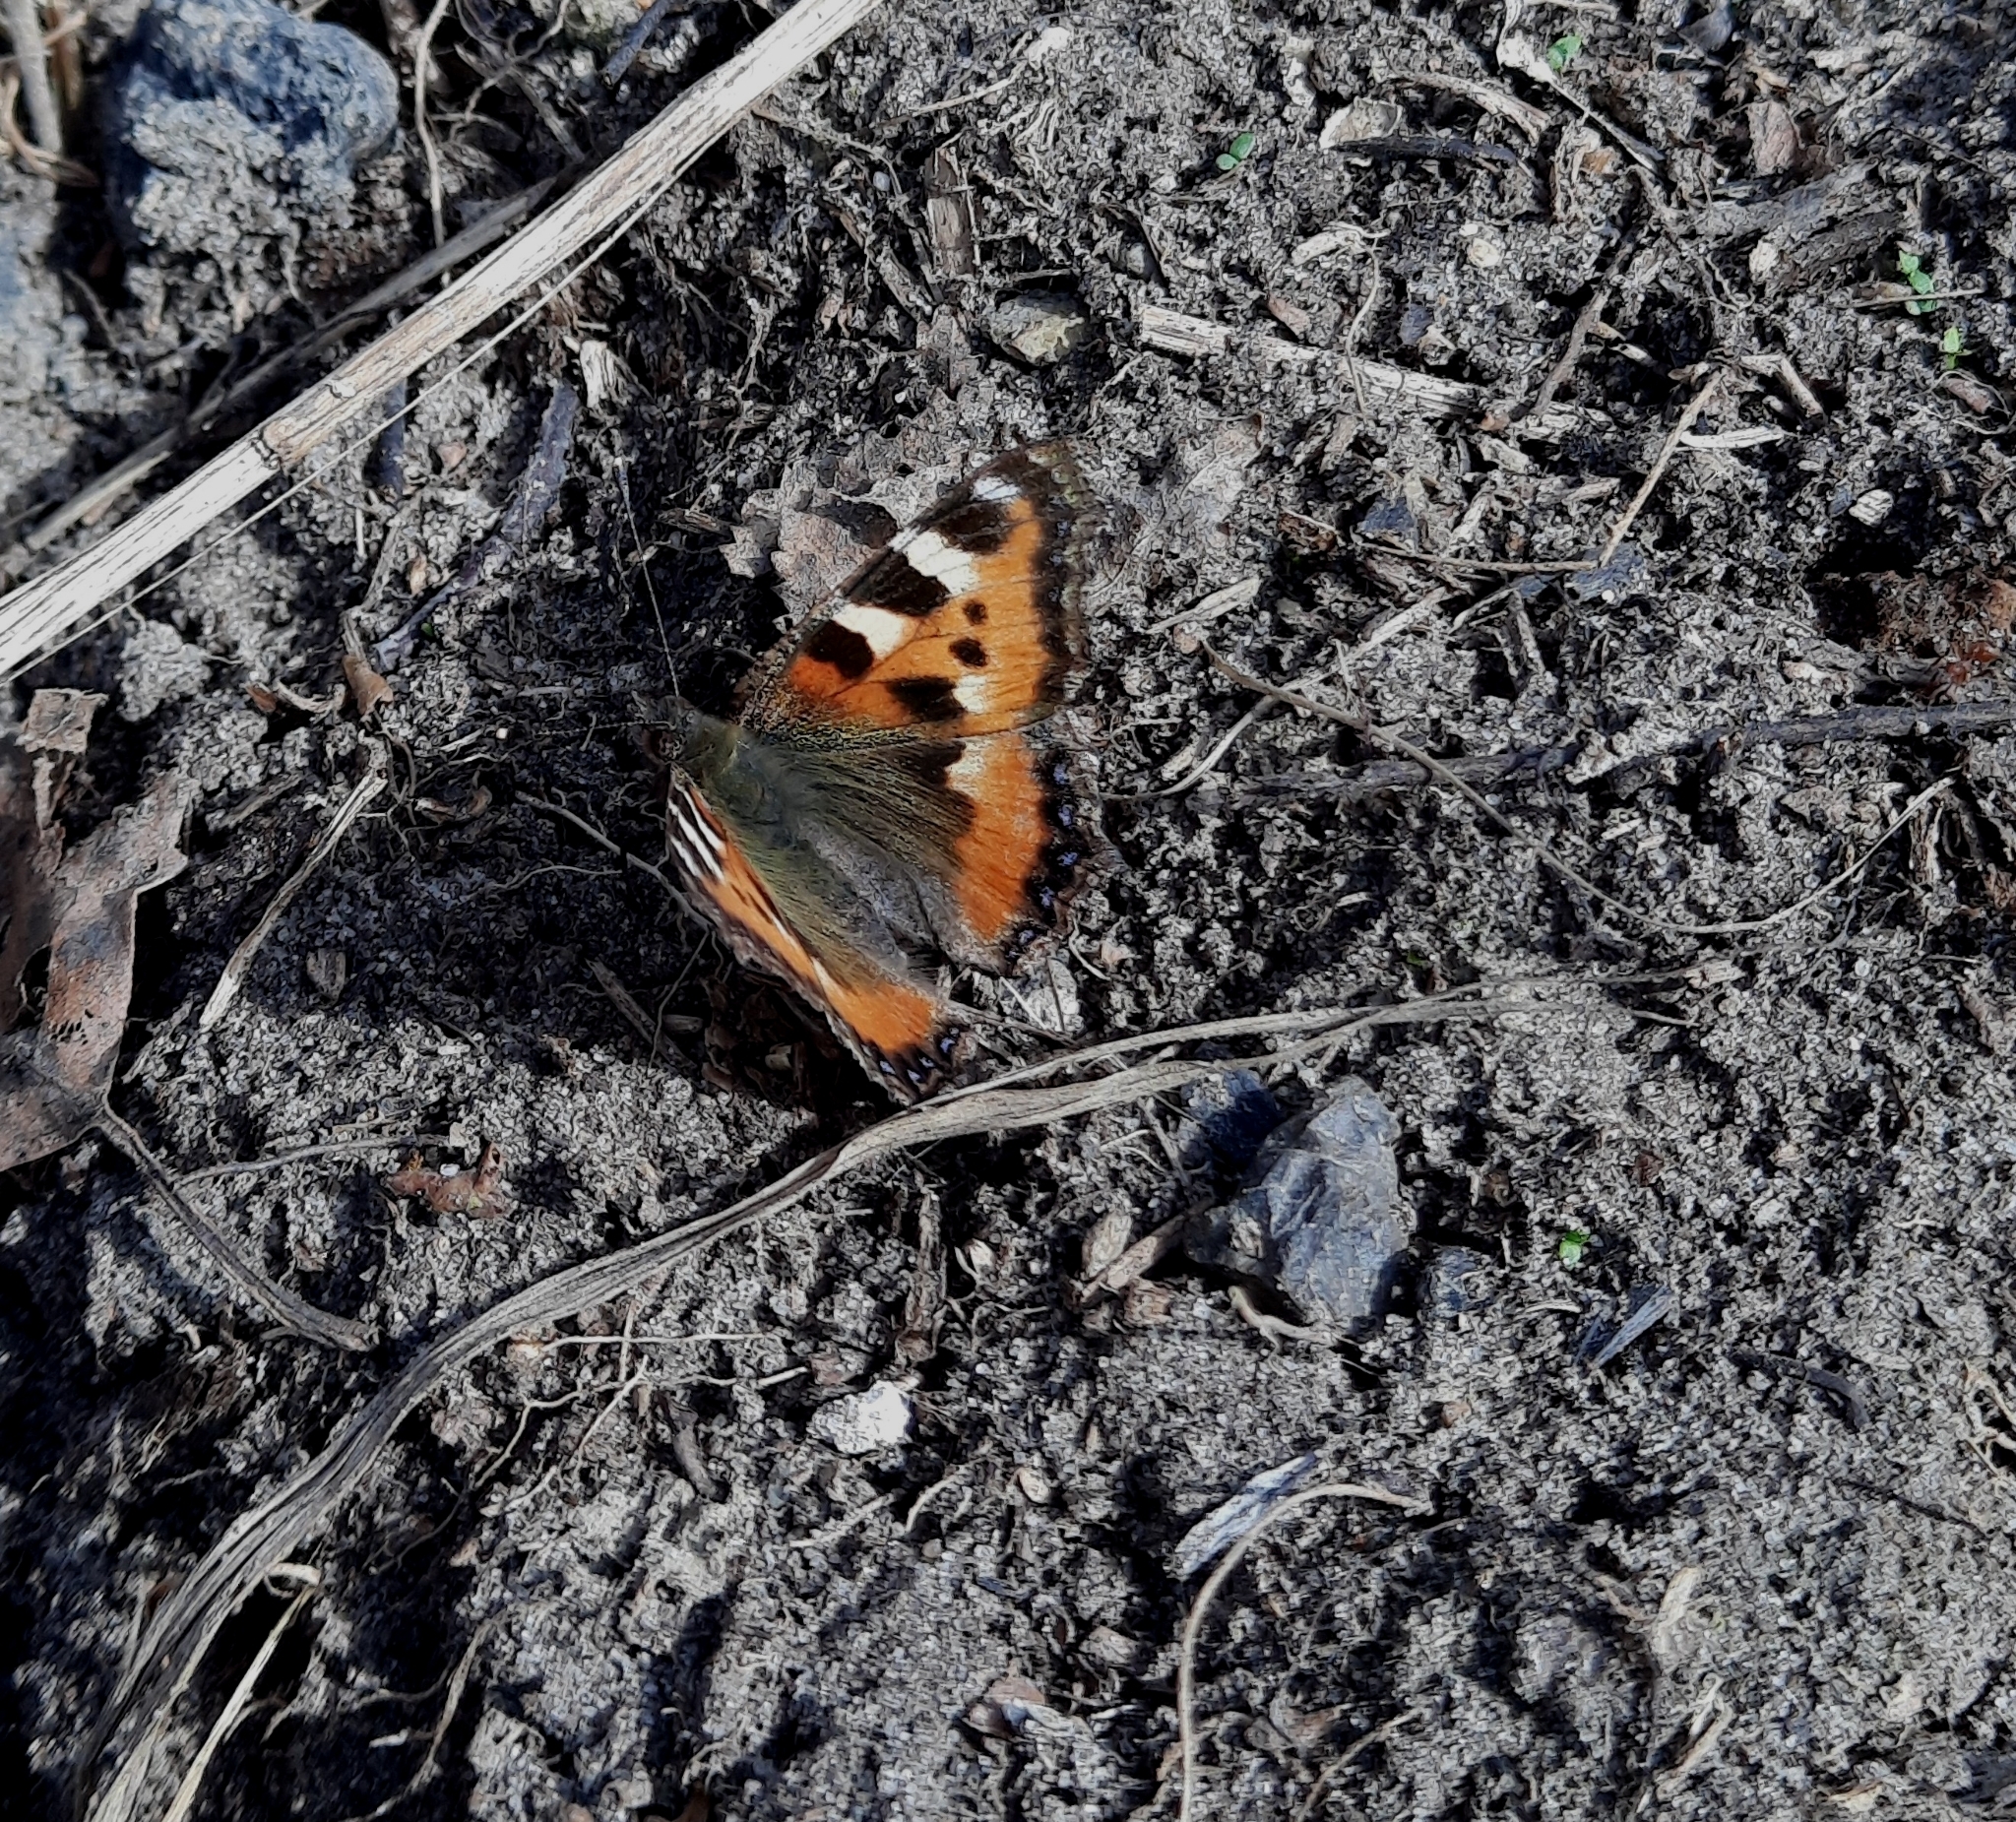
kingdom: Animalia
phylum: Arthropoda
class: Insecta
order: Lepidoptera
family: Nymphalidae
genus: Aglais
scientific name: Aglais urticae
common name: Small tortoiseshell
